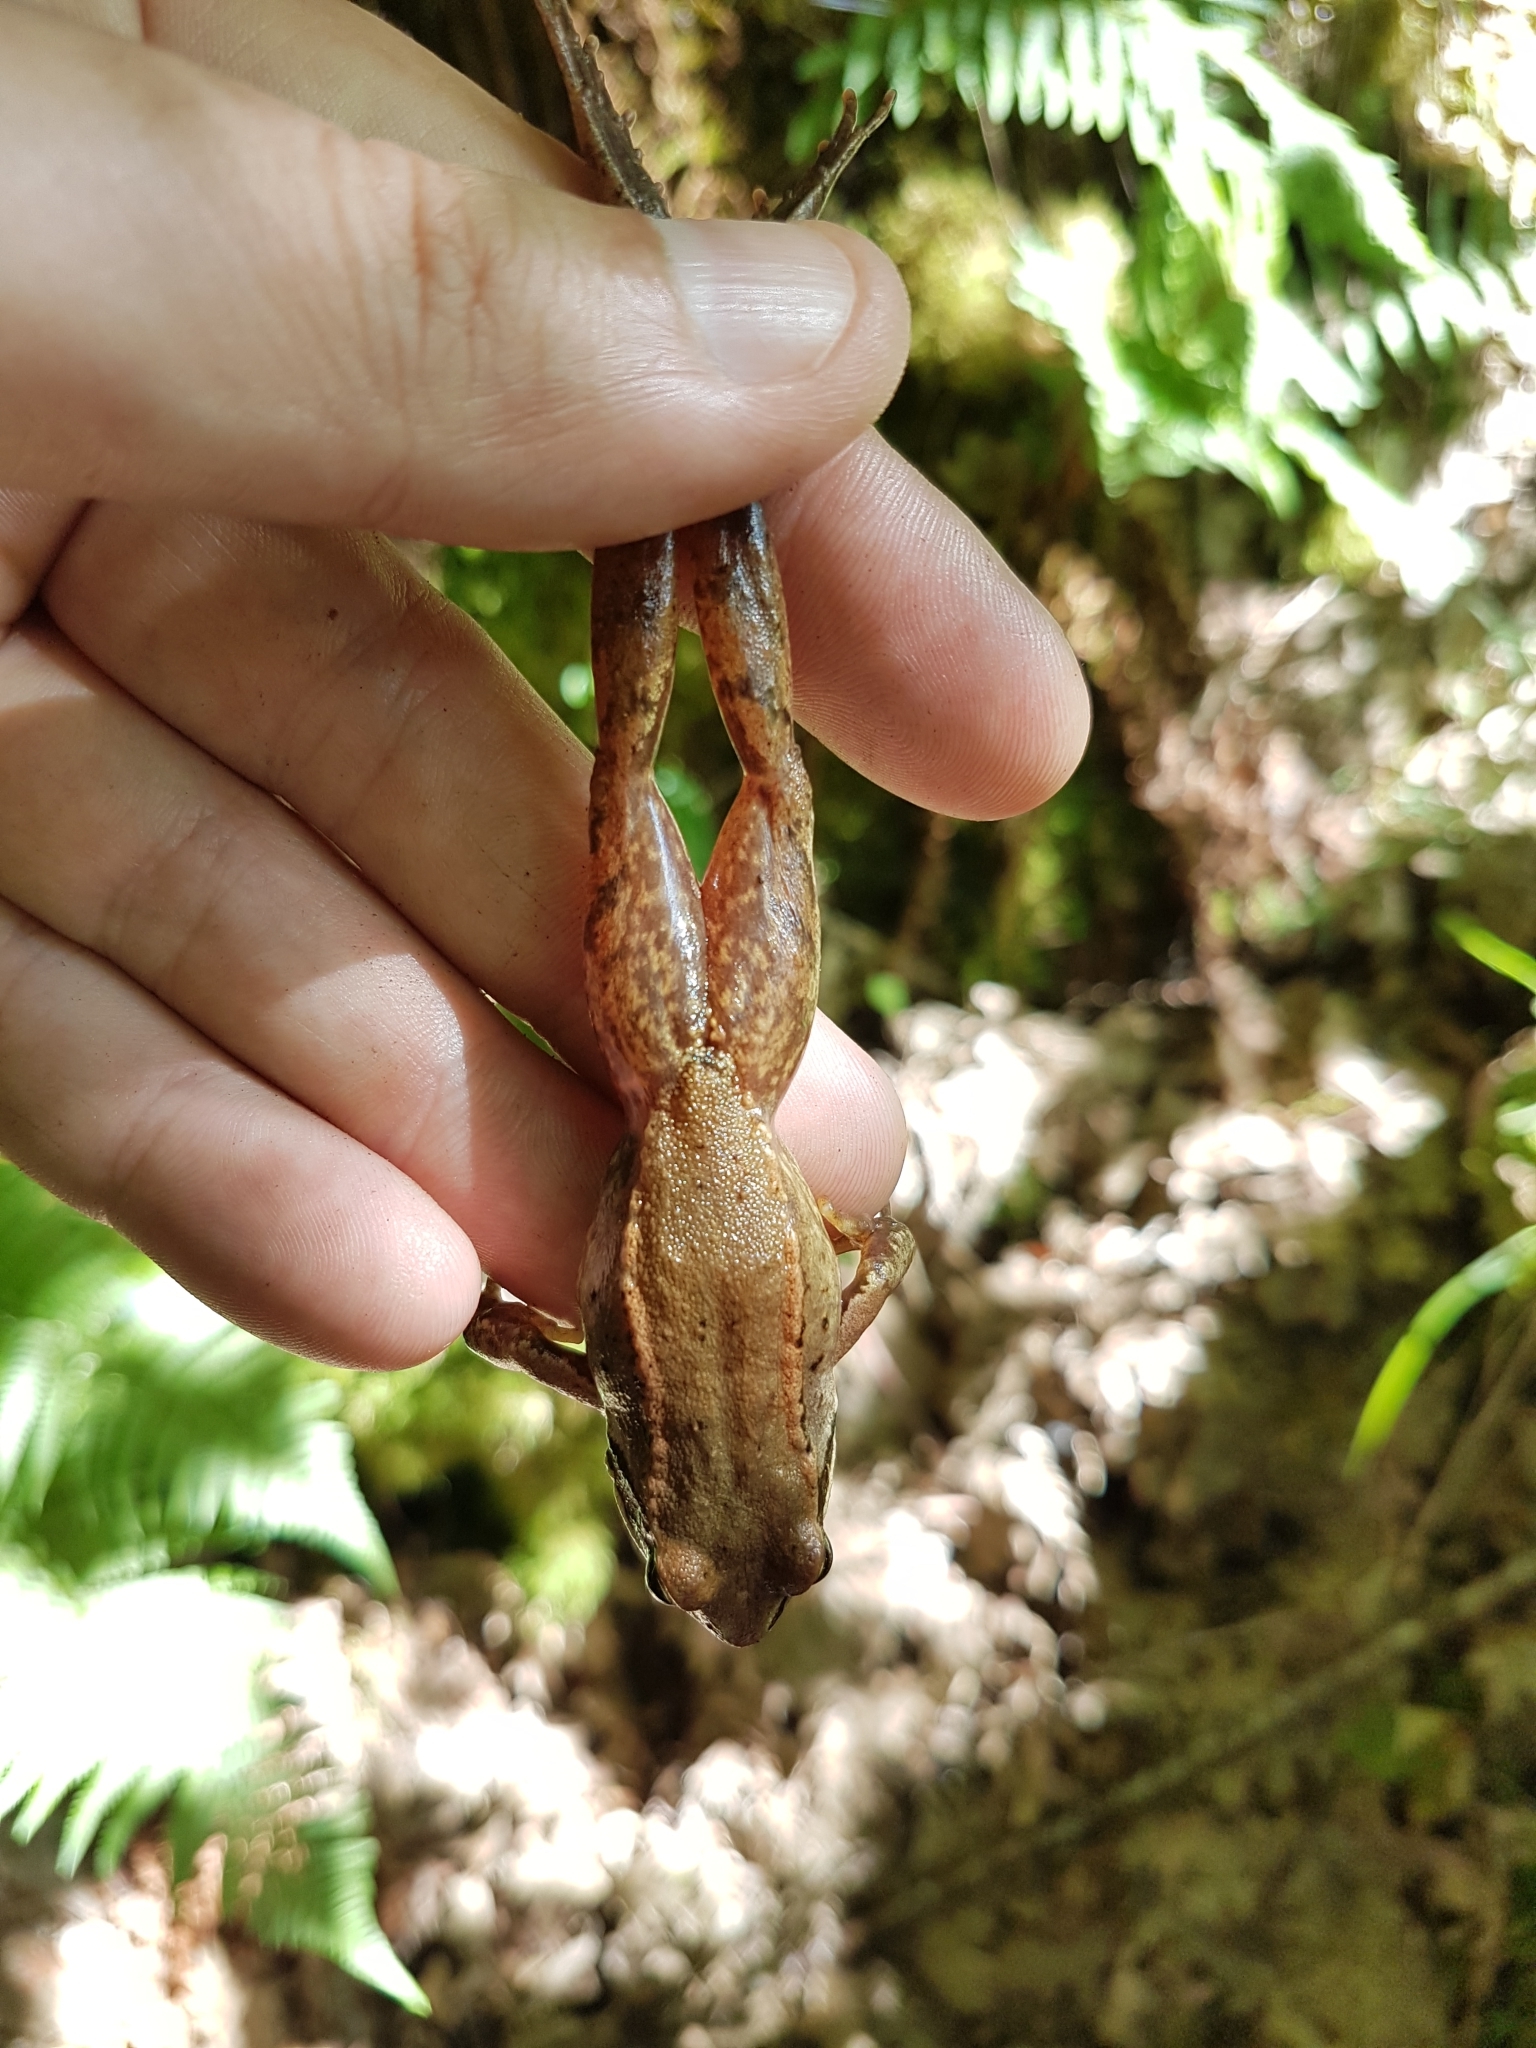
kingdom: Animalia
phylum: Chordata
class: Amphibia
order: Anura
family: Ranidae
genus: Rana
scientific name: Rana iberica
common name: Iberian frog
